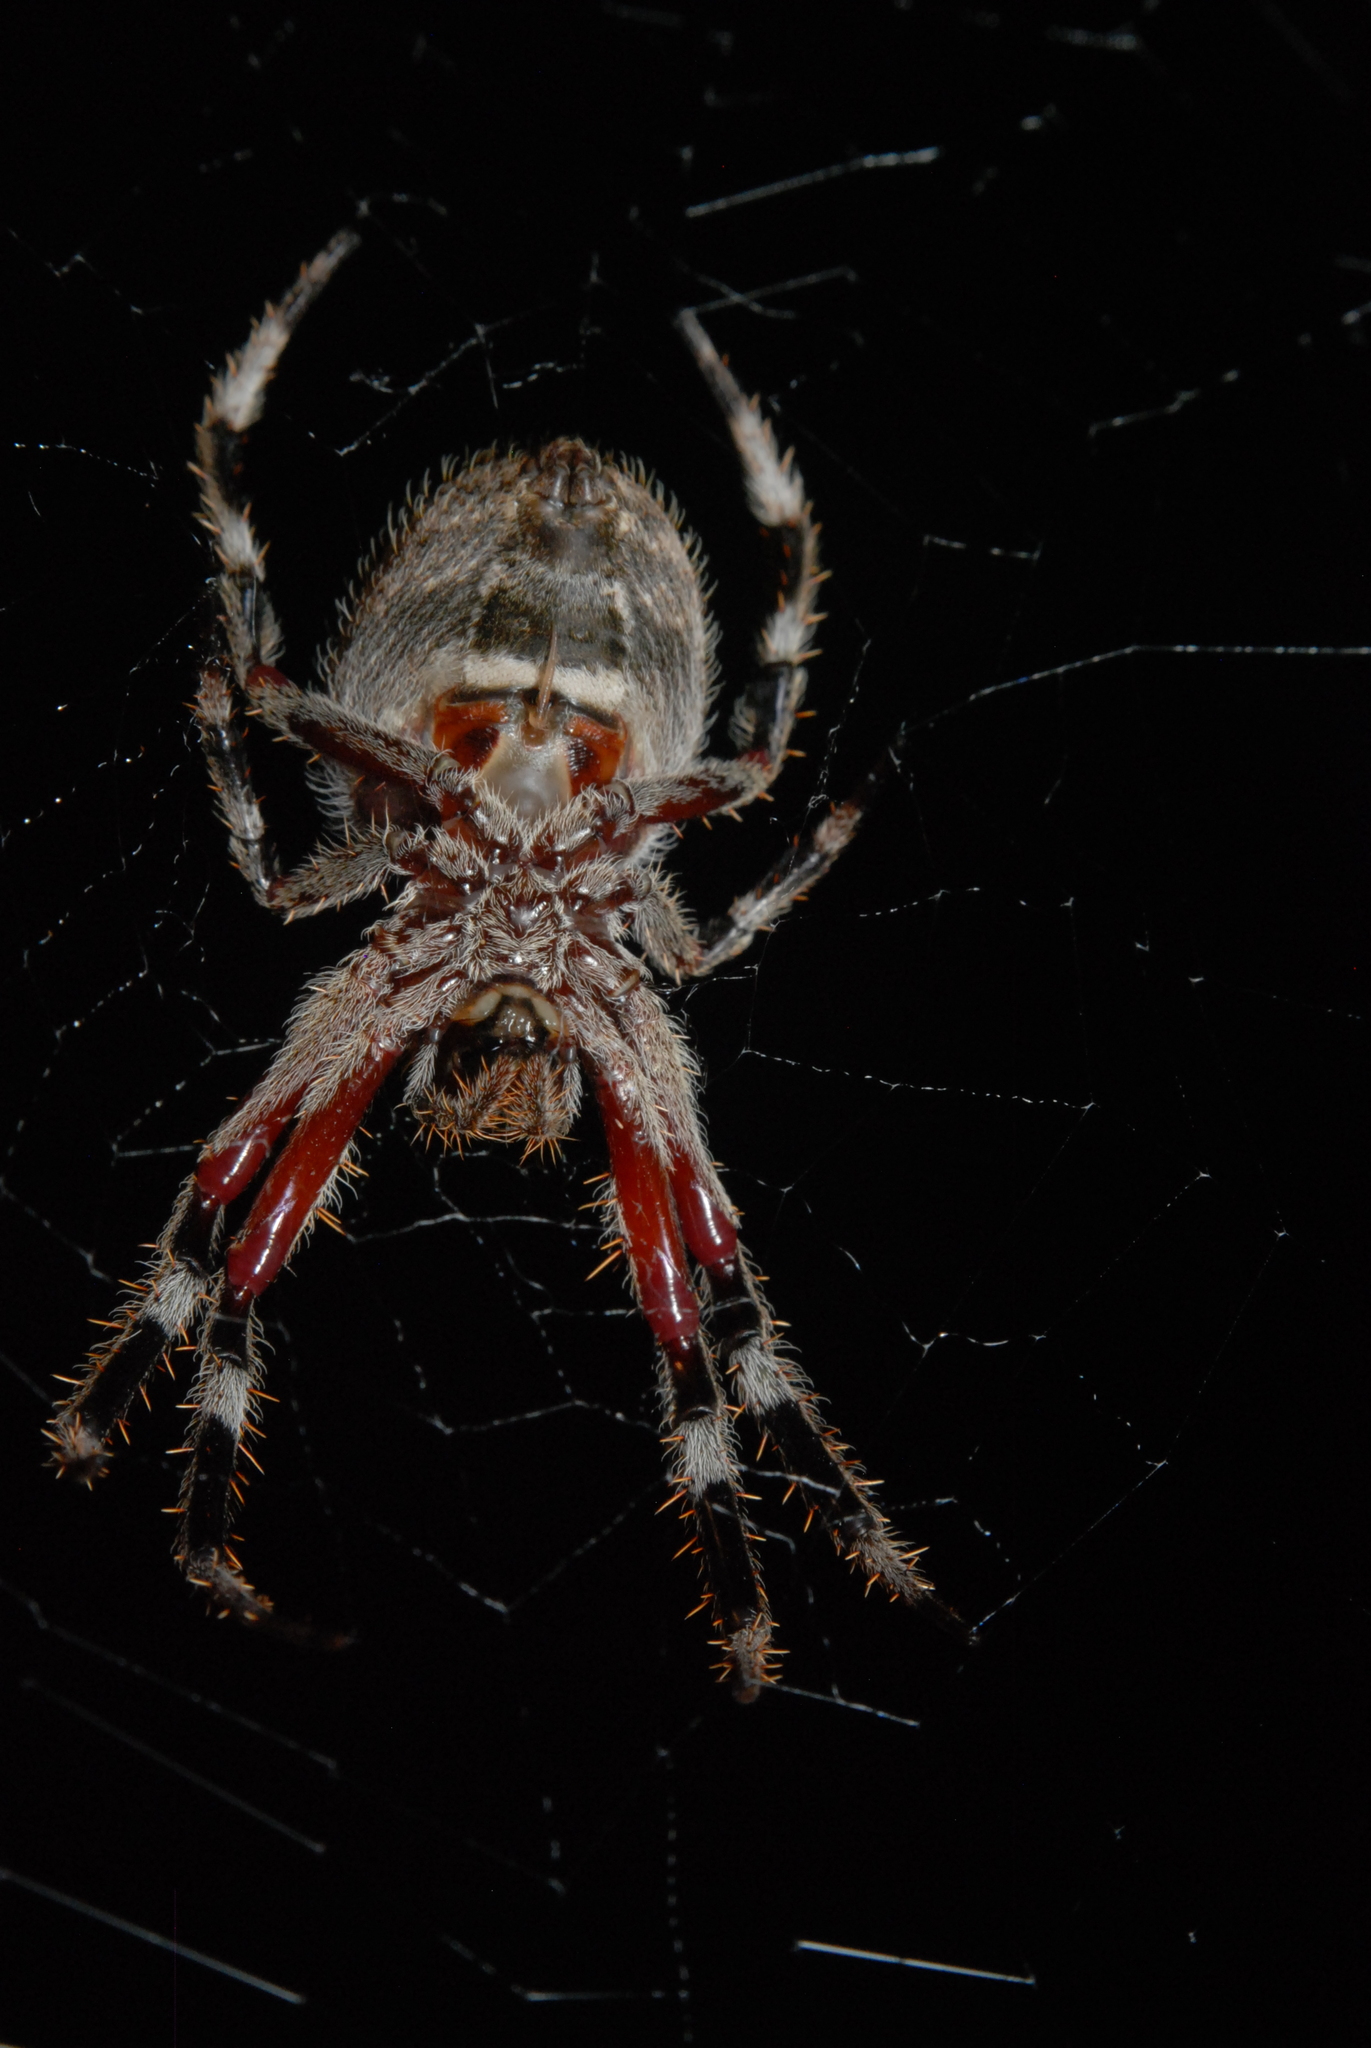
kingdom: Animalia
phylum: Arthropoda
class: Arachnida
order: Araneae
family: Araneidae
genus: Hortophora
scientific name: Hortophora biapicata
